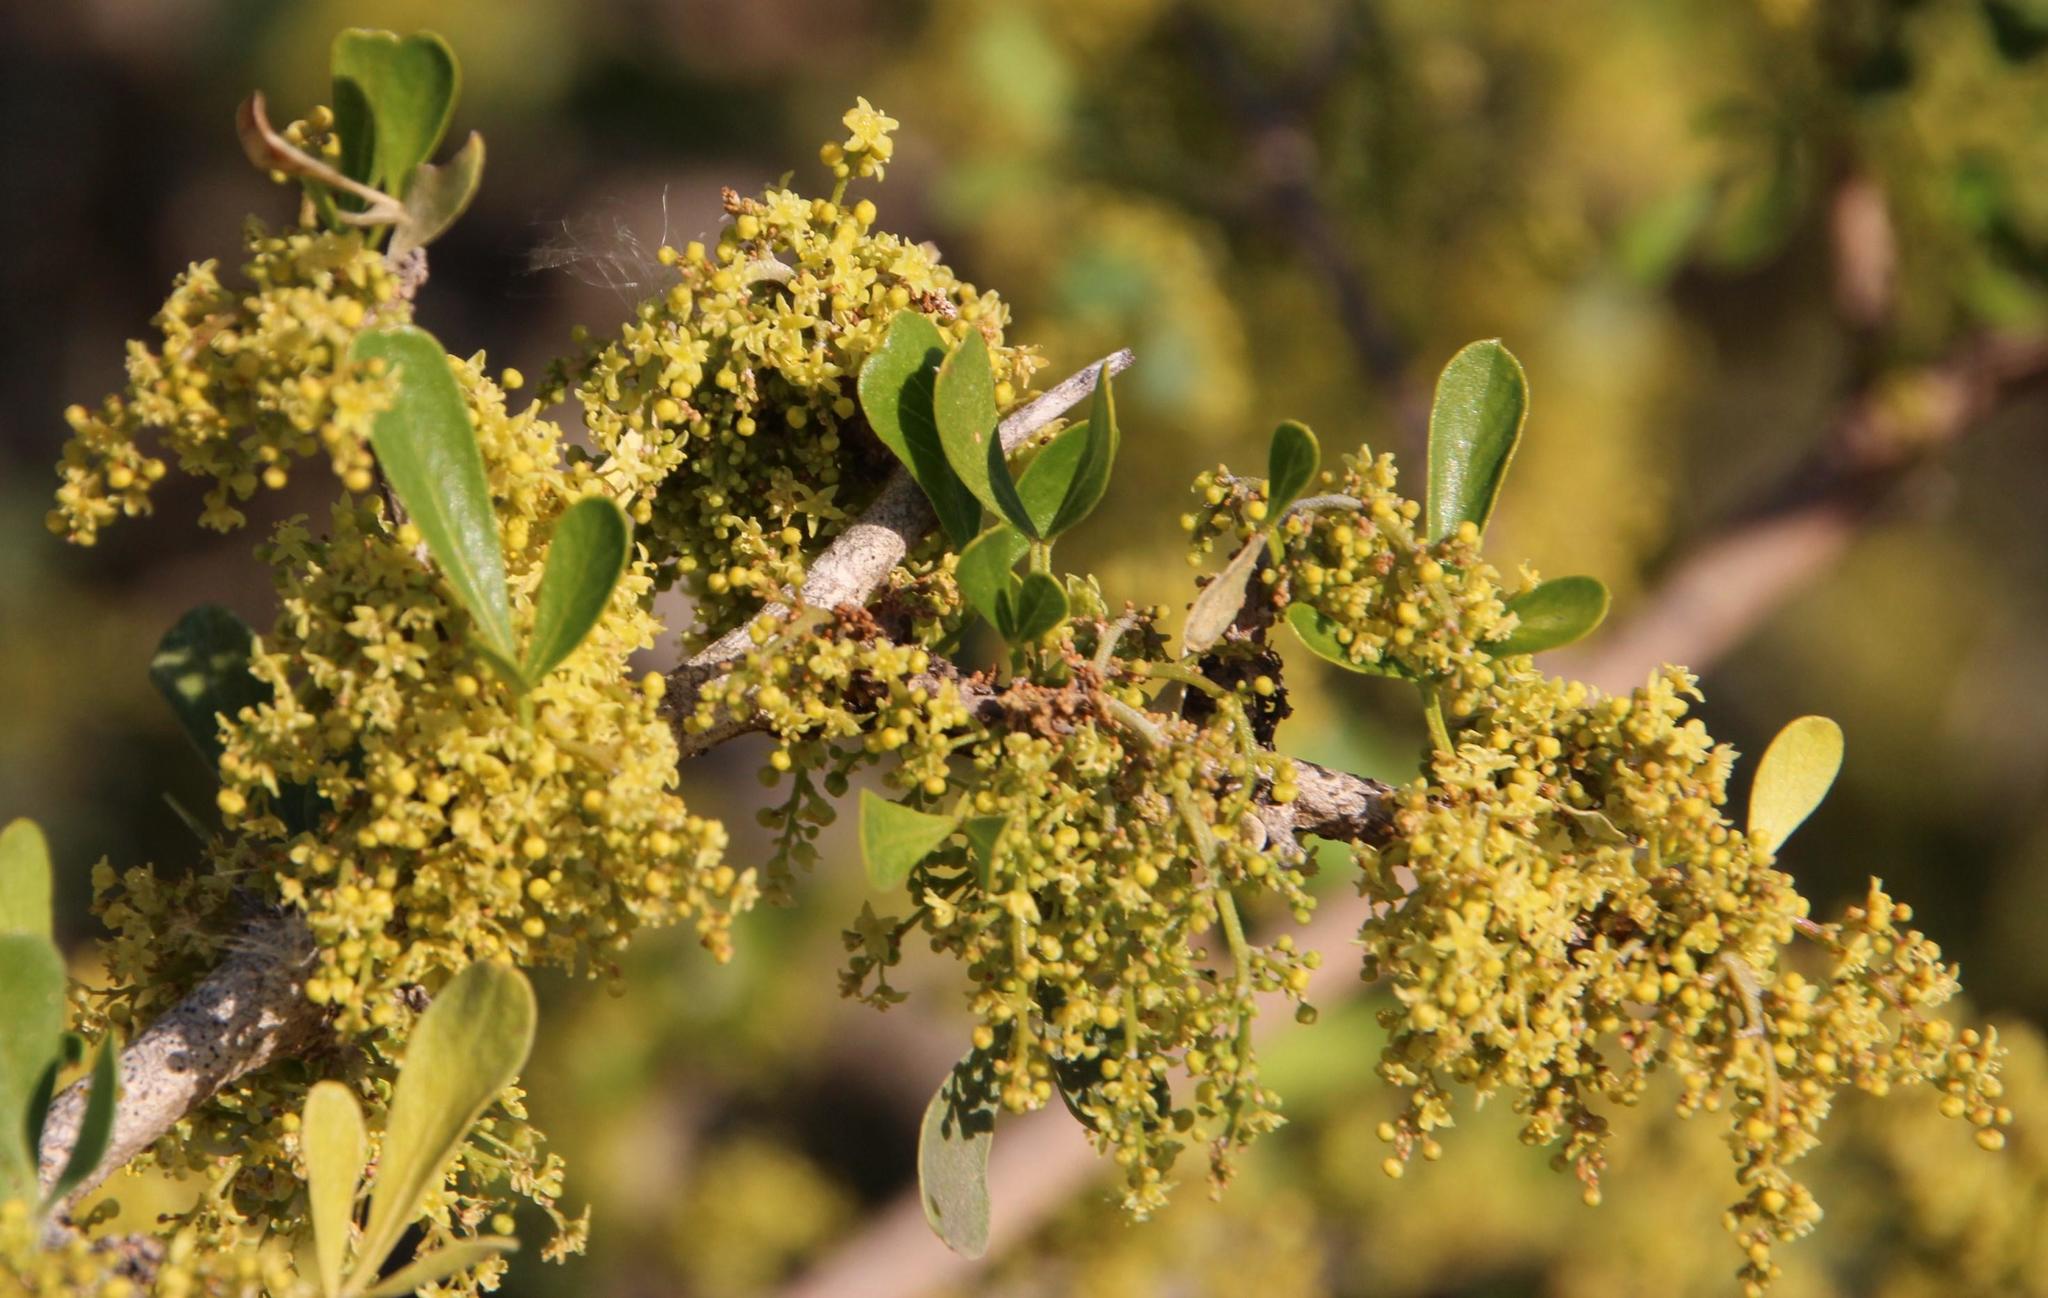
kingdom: Plantae
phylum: Tracheophyta
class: Magnoliopsida
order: Sapindales
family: Anacardiaceae
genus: Searsia
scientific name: Searsia longispina
